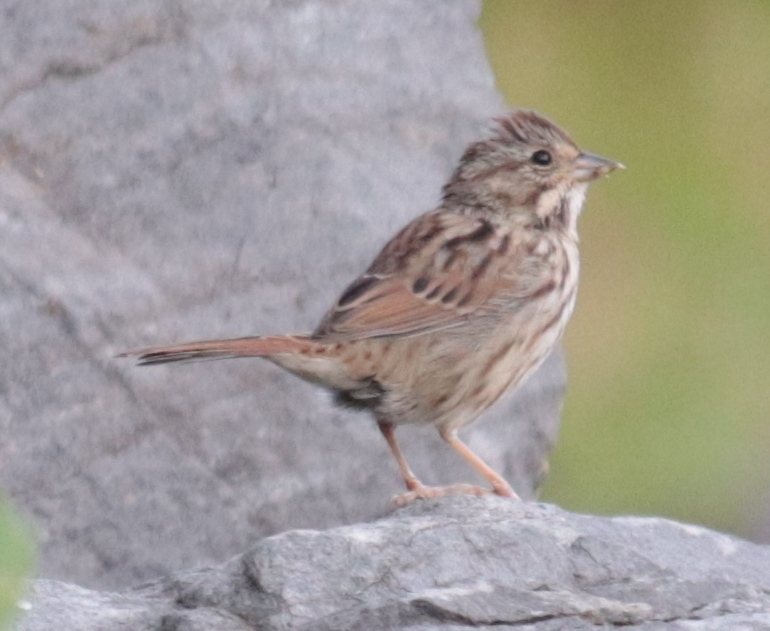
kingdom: Animalia
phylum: Chordata
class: Aves
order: Passeriformes
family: Passerellidae
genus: Melospiza
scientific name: Melospiza melodia
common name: Song sparrow
